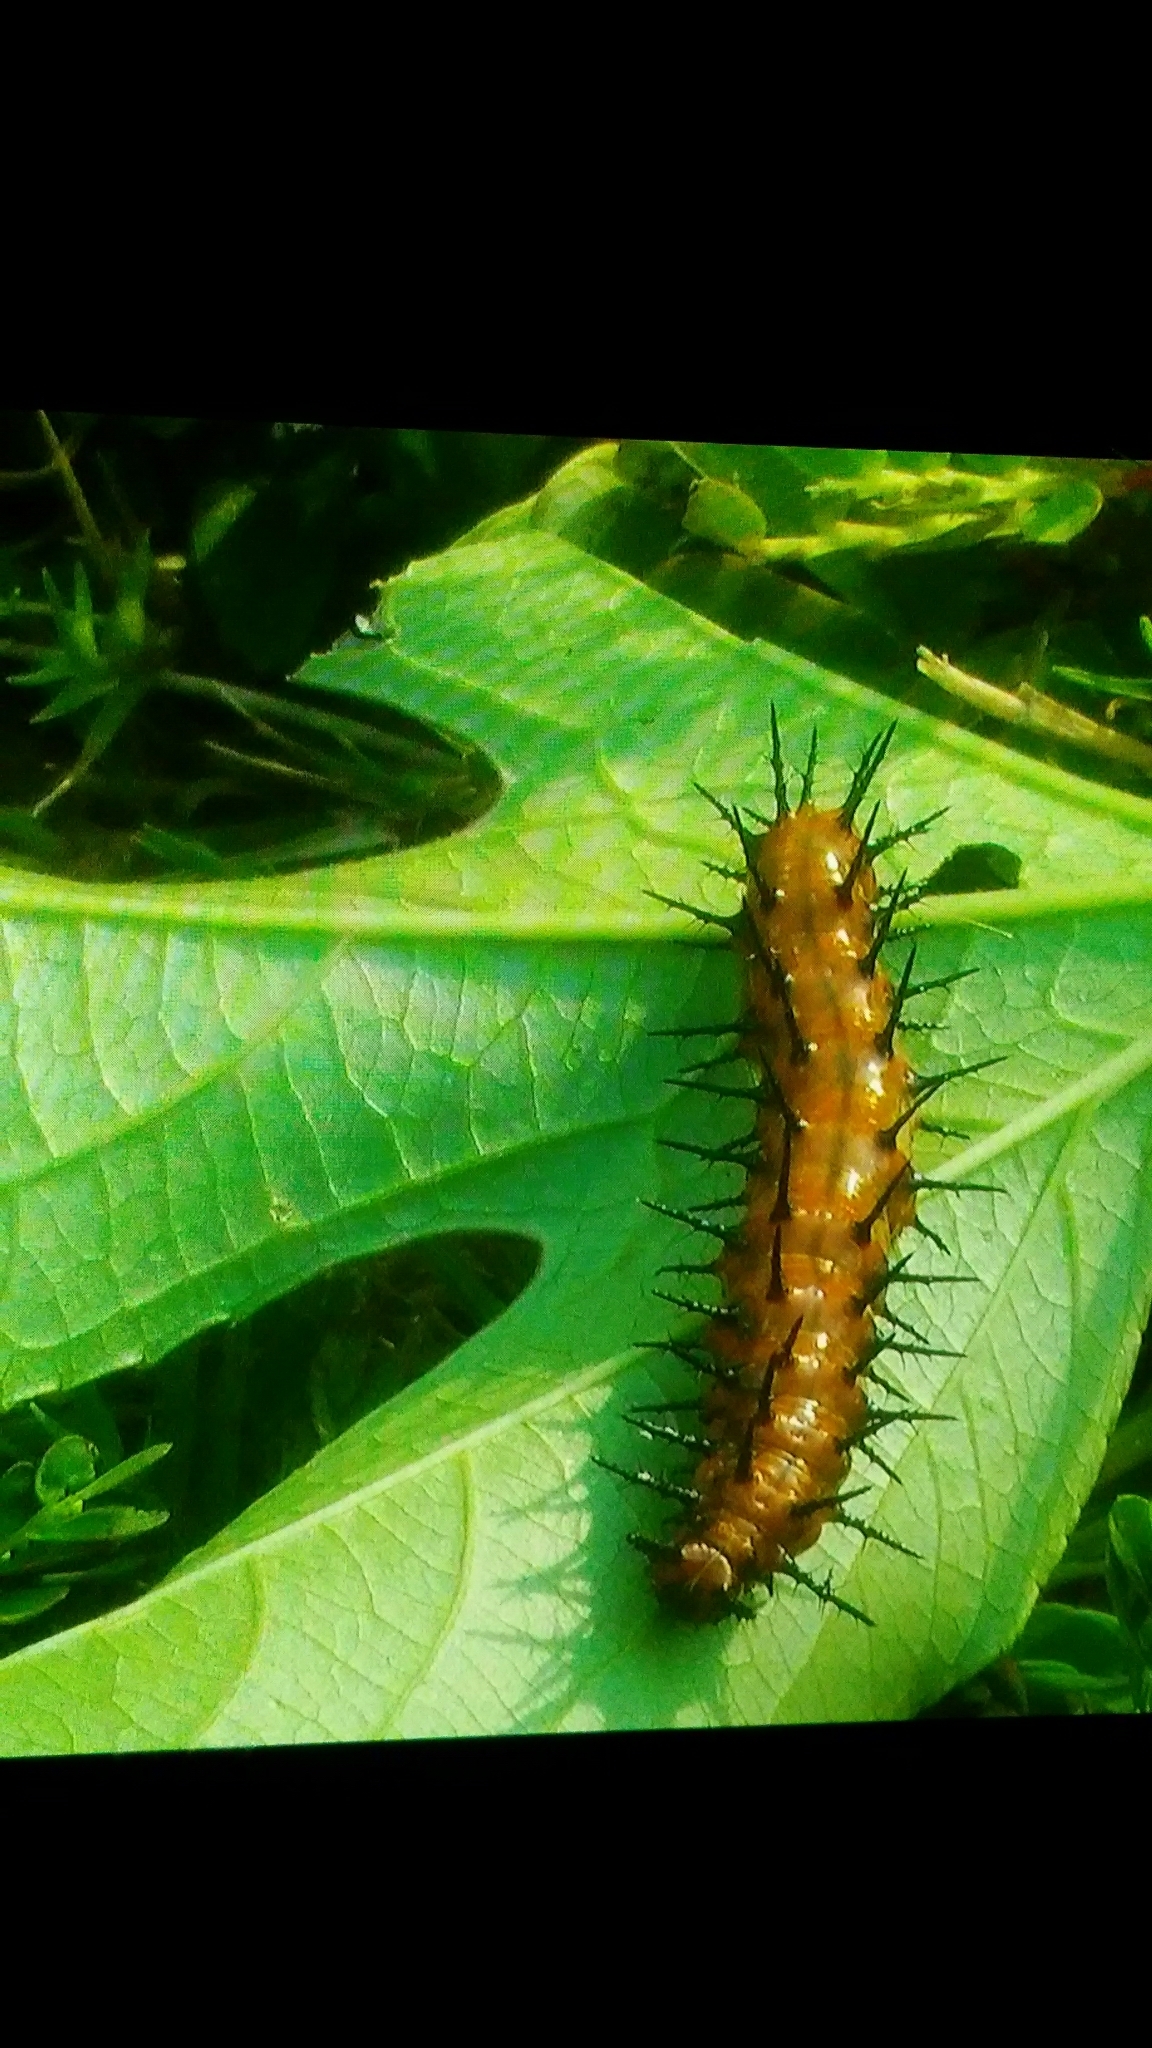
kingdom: Animalia
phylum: Arthropoda
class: Insecta
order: Lepidoptera
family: Nymphalidae
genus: Dione
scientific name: Dione vanillae
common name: Gulf fritillary
